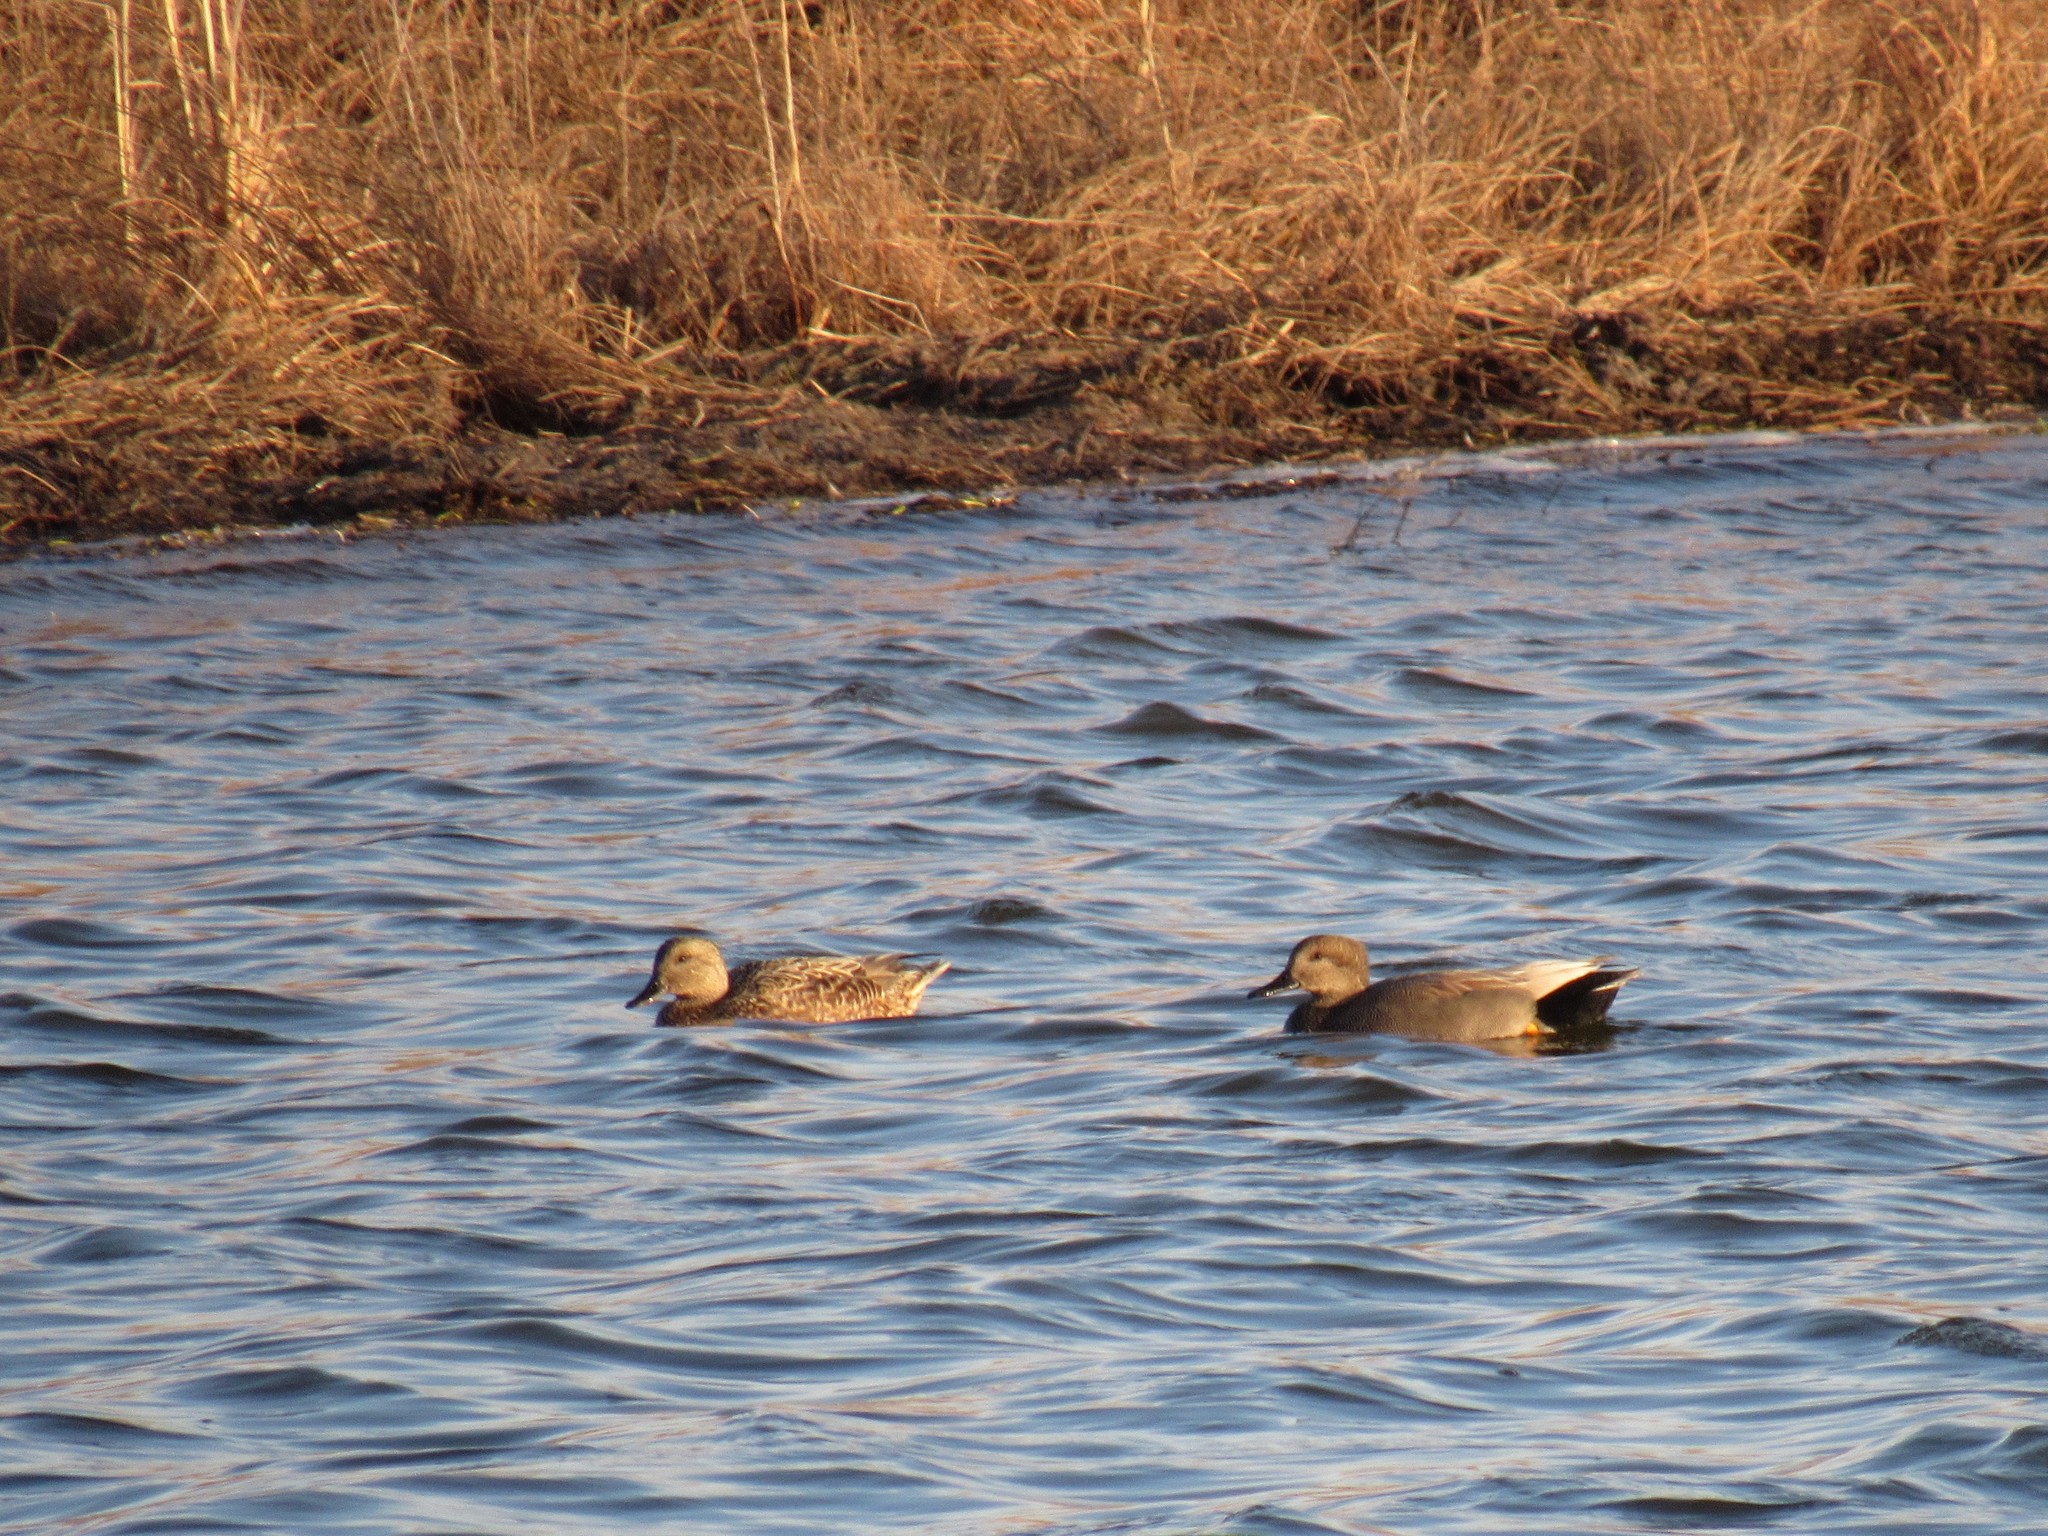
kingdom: Animalia
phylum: Chordata
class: Aves
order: Anseriformes
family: Anatidae
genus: Mareca
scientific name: Mareca strepera
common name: Gadwall
